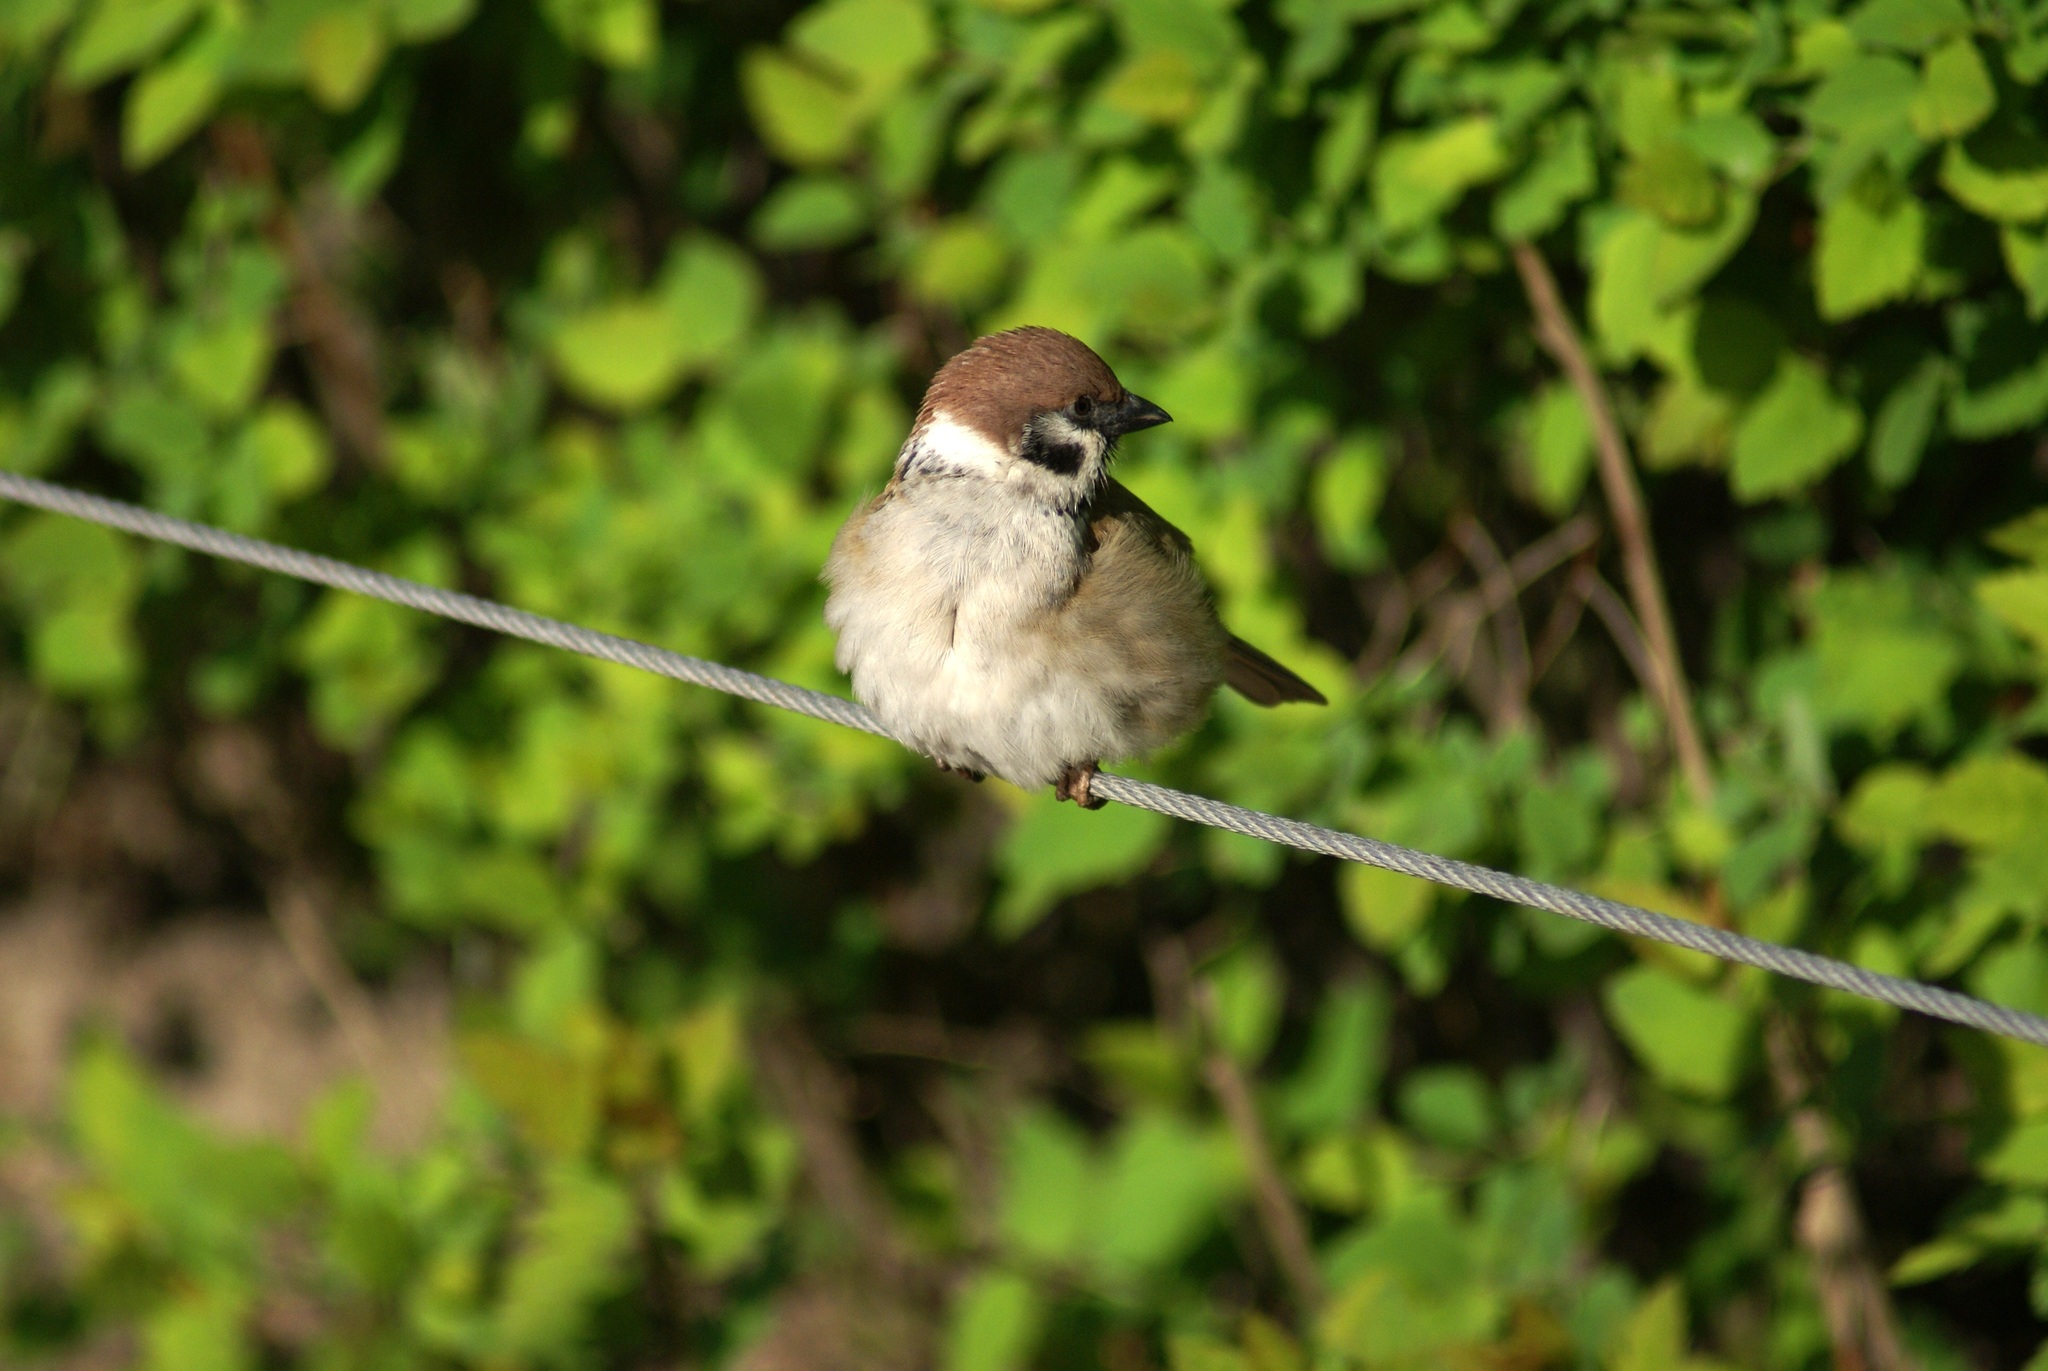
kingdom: Animalia
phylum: Chordata
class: Aves
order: Passeriformes
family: Passeridae
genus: Passer
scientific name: Passer montanus
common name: Eurasian tree sparrow
